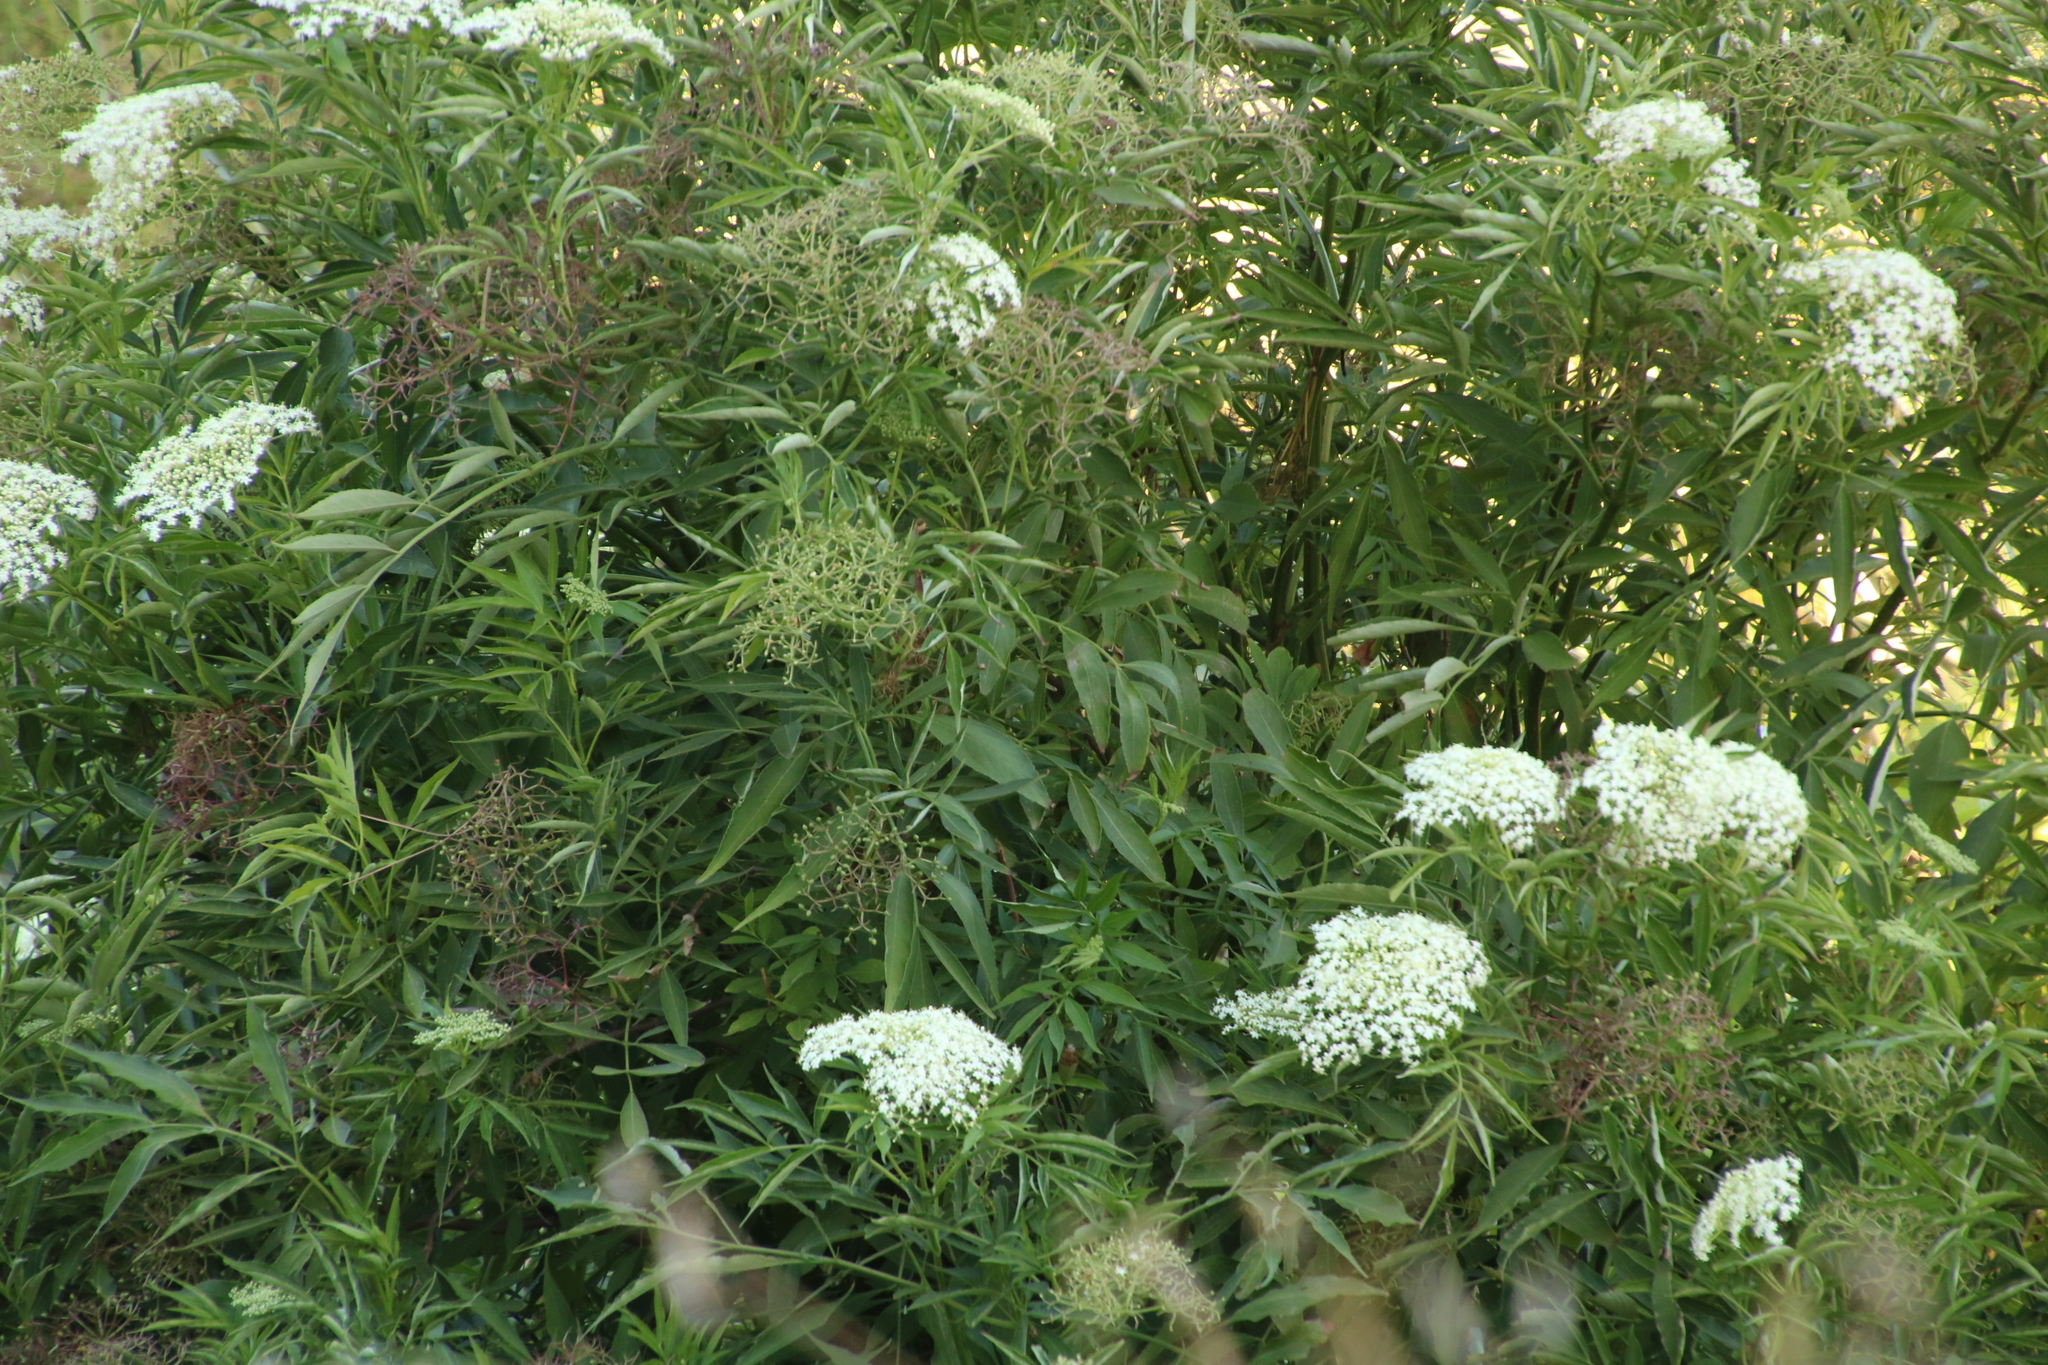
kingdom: Plantae
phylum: Tracheophyta
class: Magnoliopsida
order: Dipsacales
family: Viburnaceae
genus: Sambucus
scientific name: Sambucus nigra
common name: Elder
